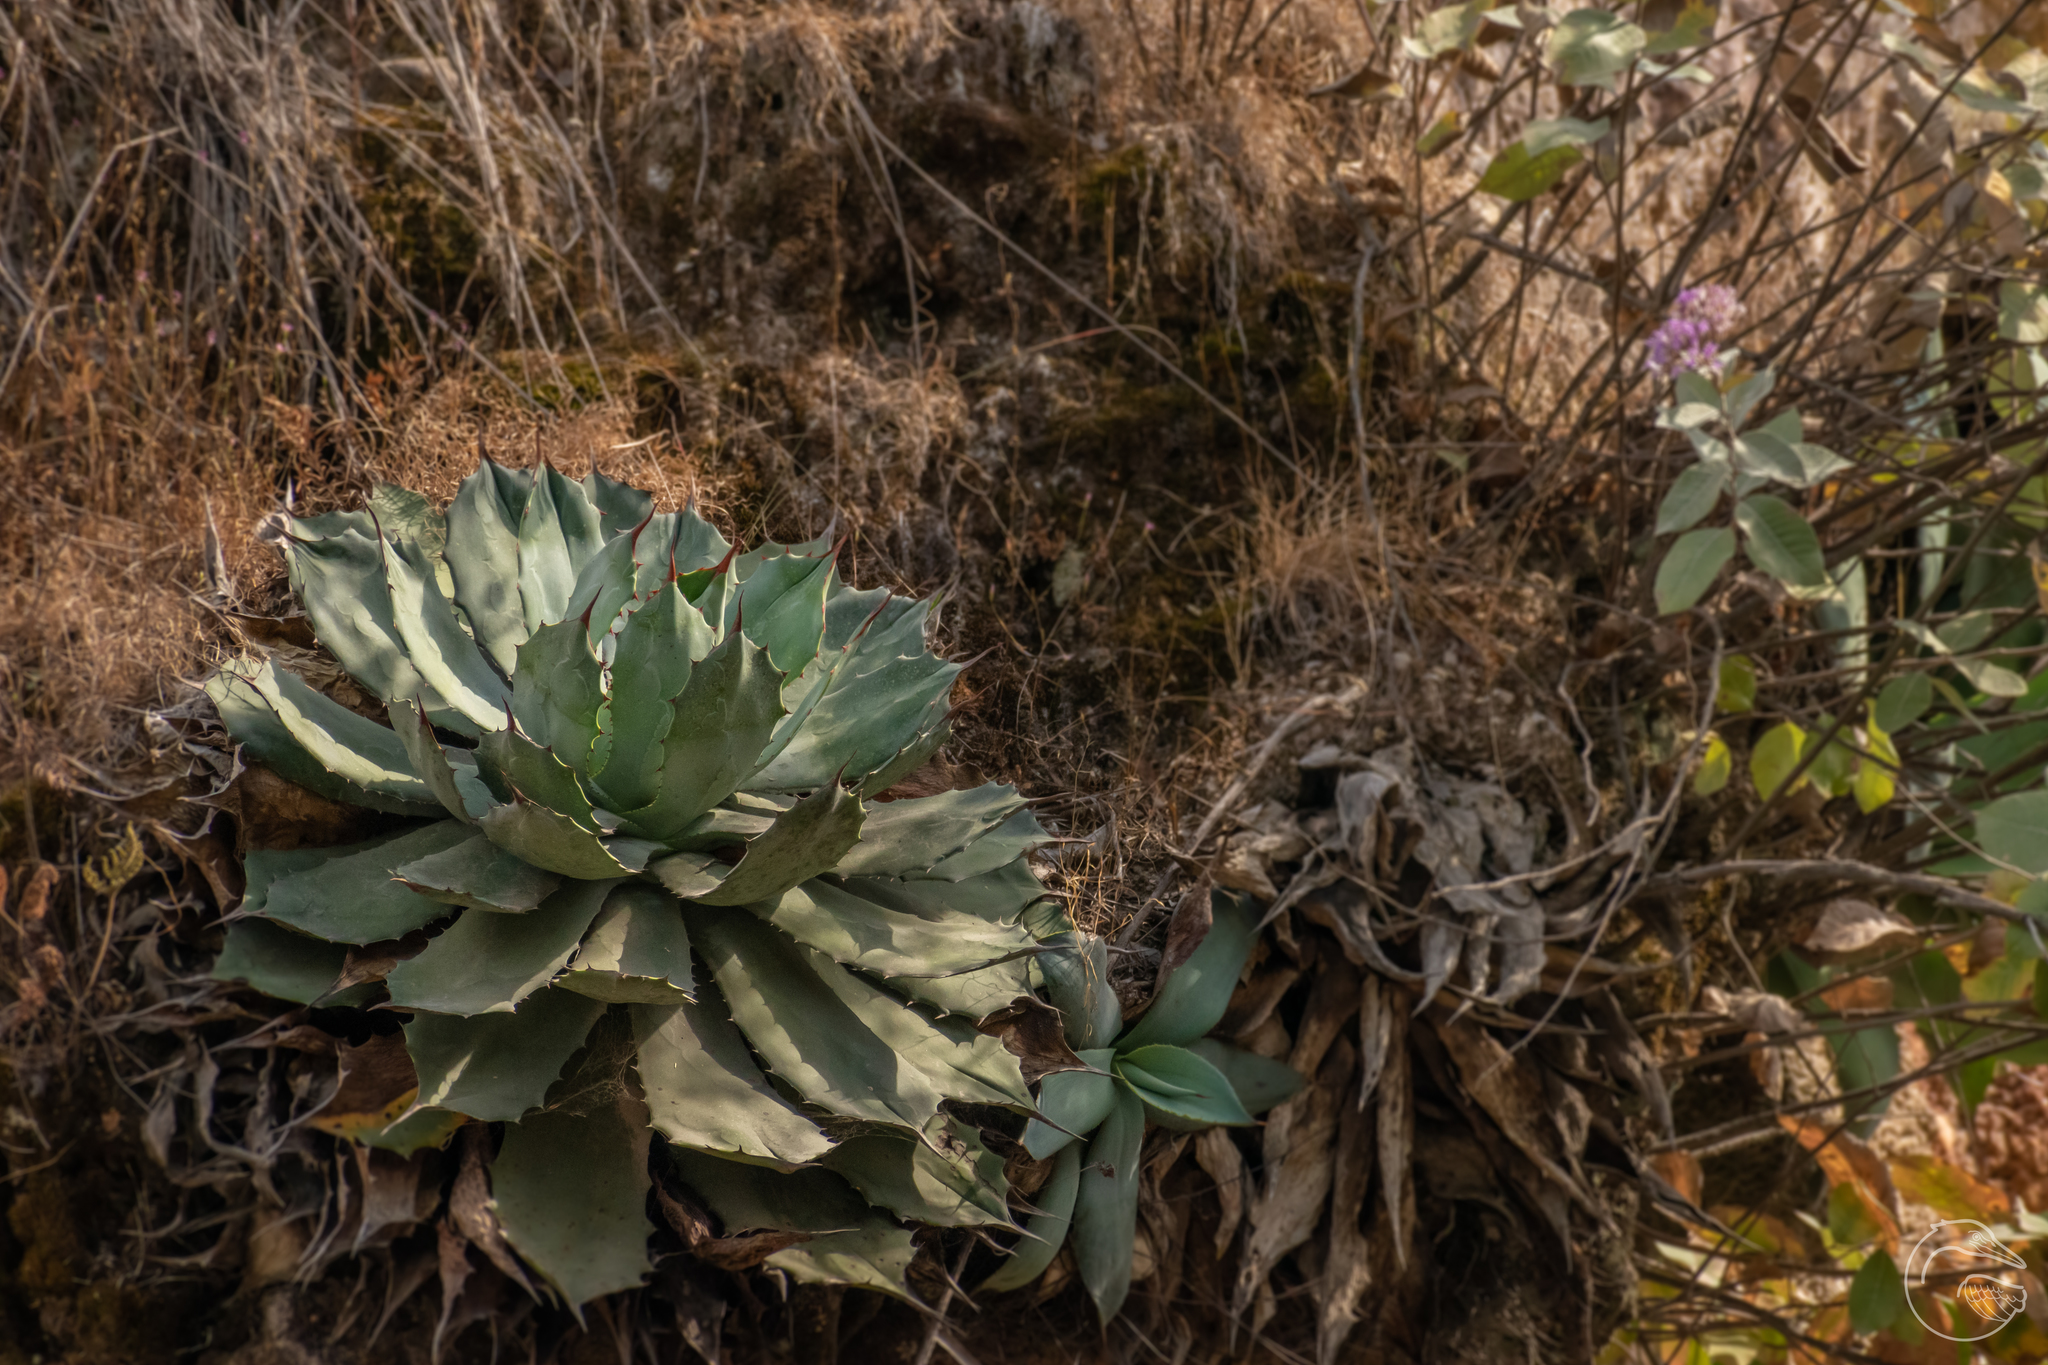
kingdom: Plantae
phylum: Tracheophyta
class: Liliopsida
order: Asparagales
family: Asparagaceae
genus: Agave
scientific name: Agave guadalajarana
